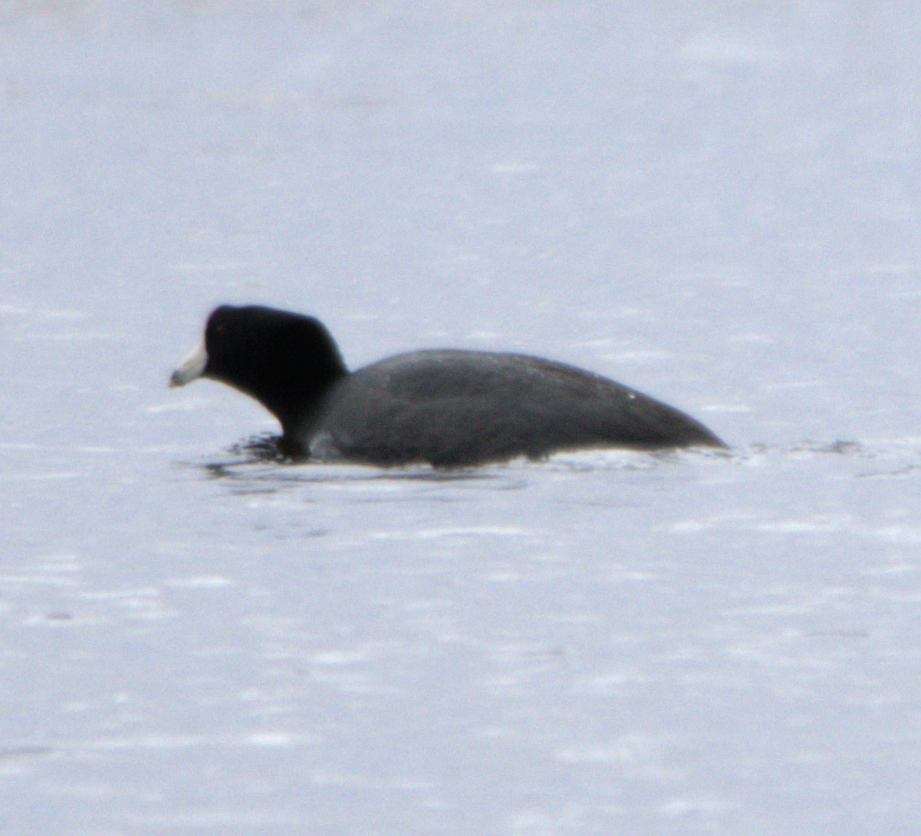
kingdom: Animalia
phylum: Chordata
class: Aves
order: Gruiformes
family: Rallidae
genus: Fulica
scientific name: Fulica americana
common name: American coot
